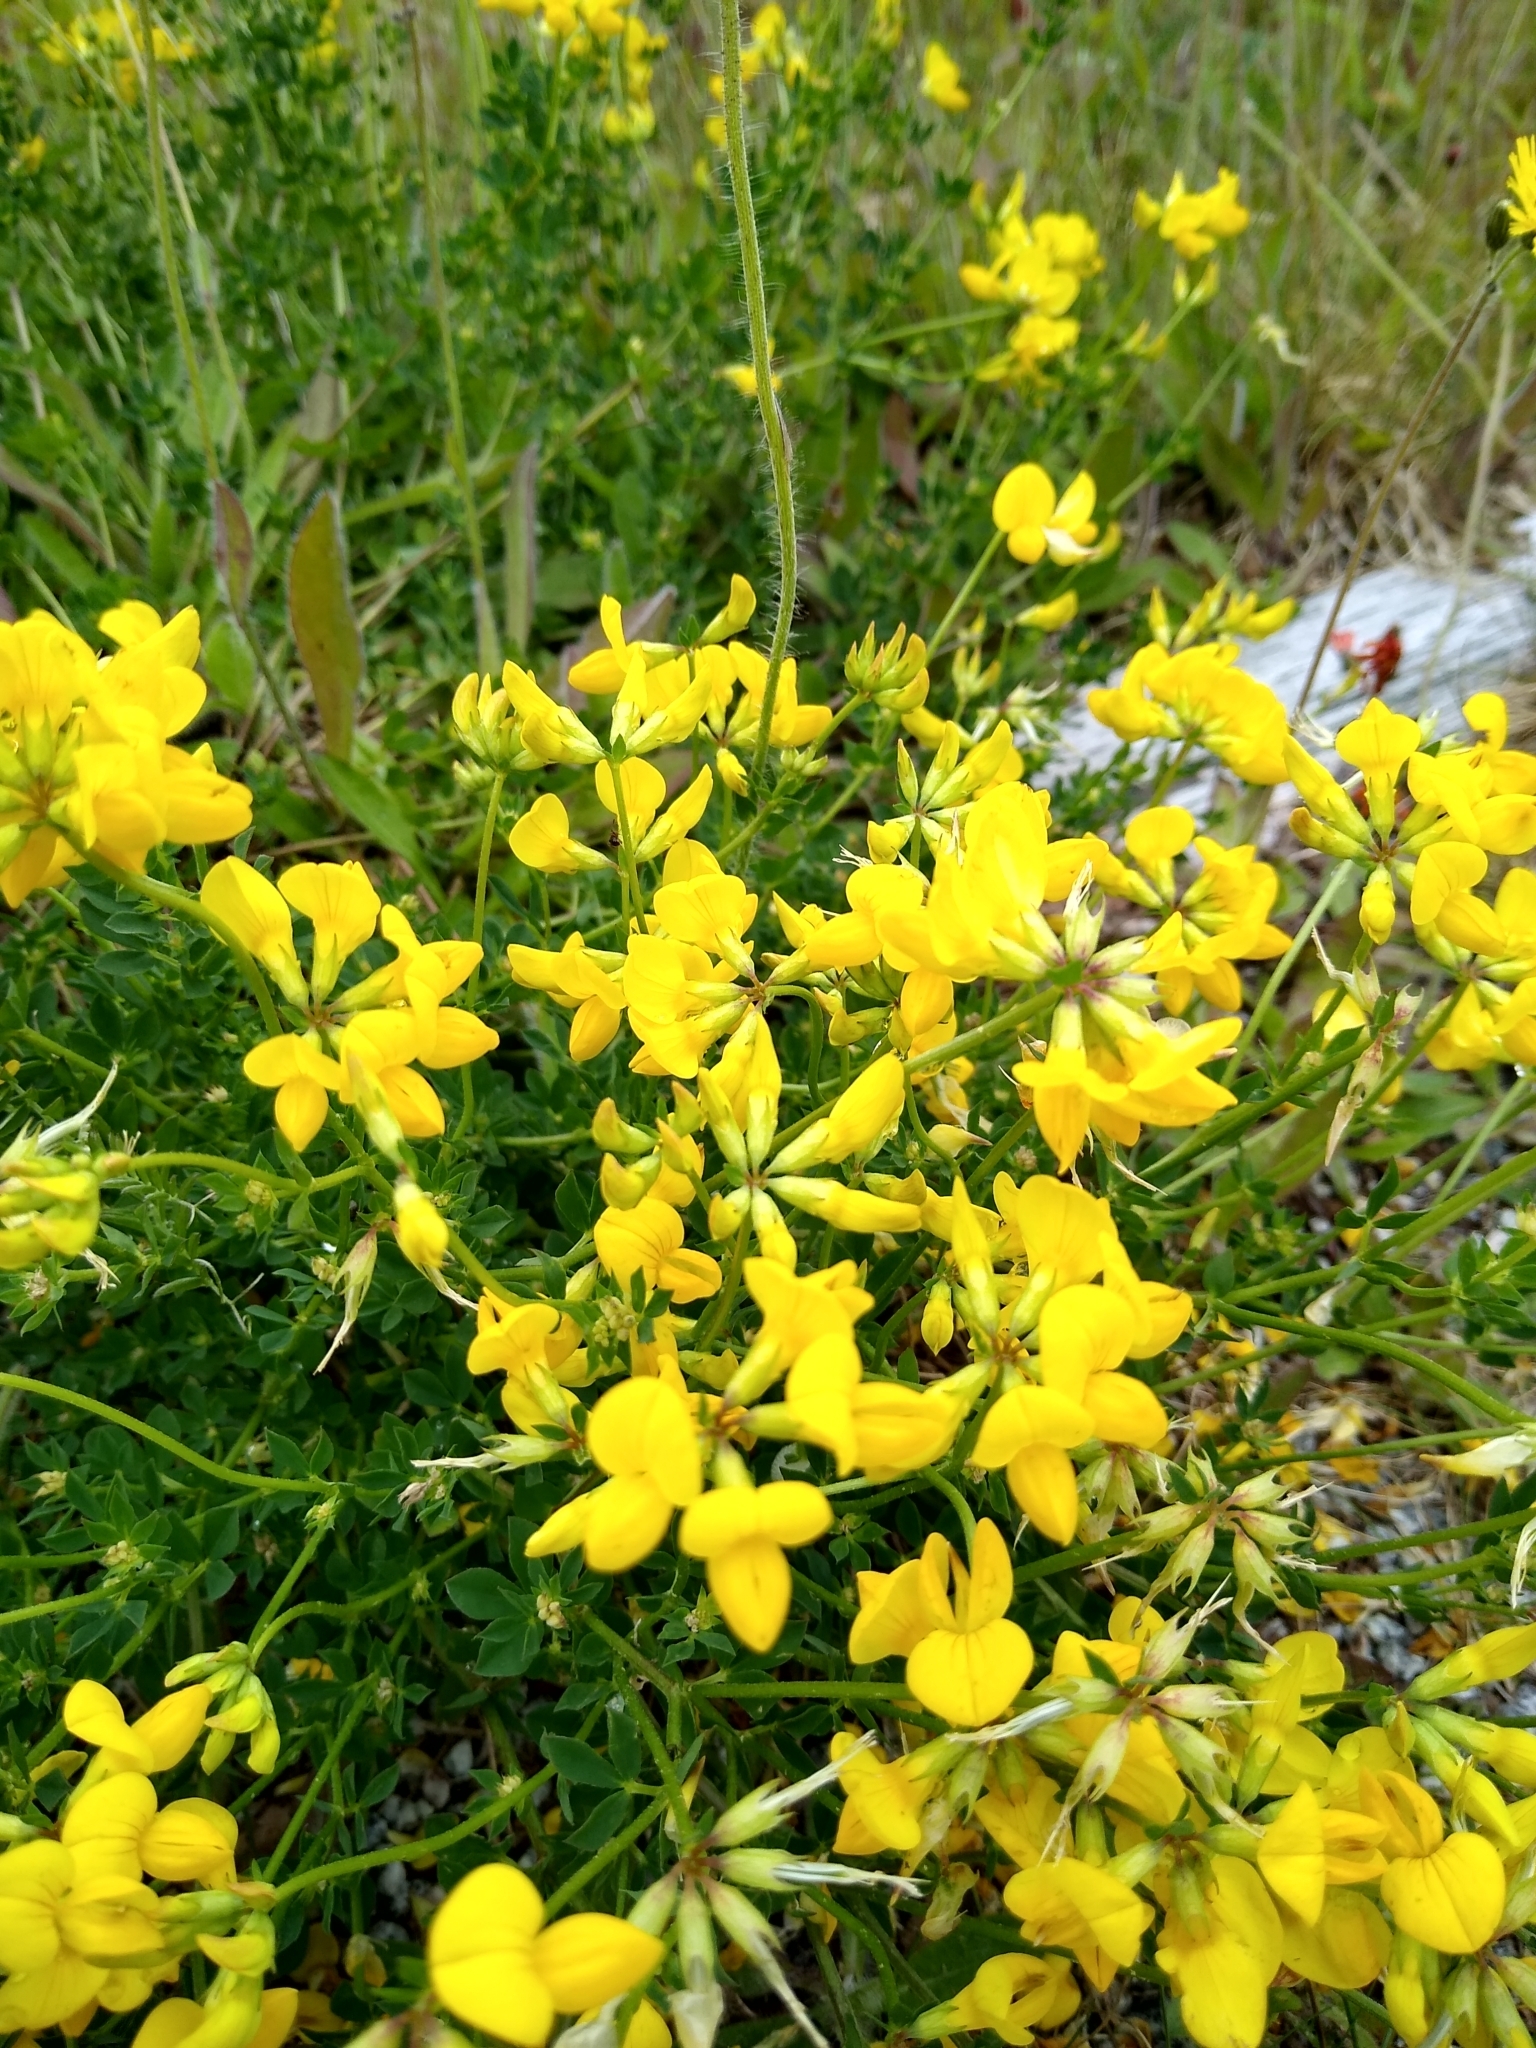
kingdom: Plantae
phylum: Tracheophyta
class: Magnoliopsida
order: Fabales
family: Fabaceae
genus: Lotus
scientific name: Lotus corniculatus
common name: Common bird's-foot-trefoil
